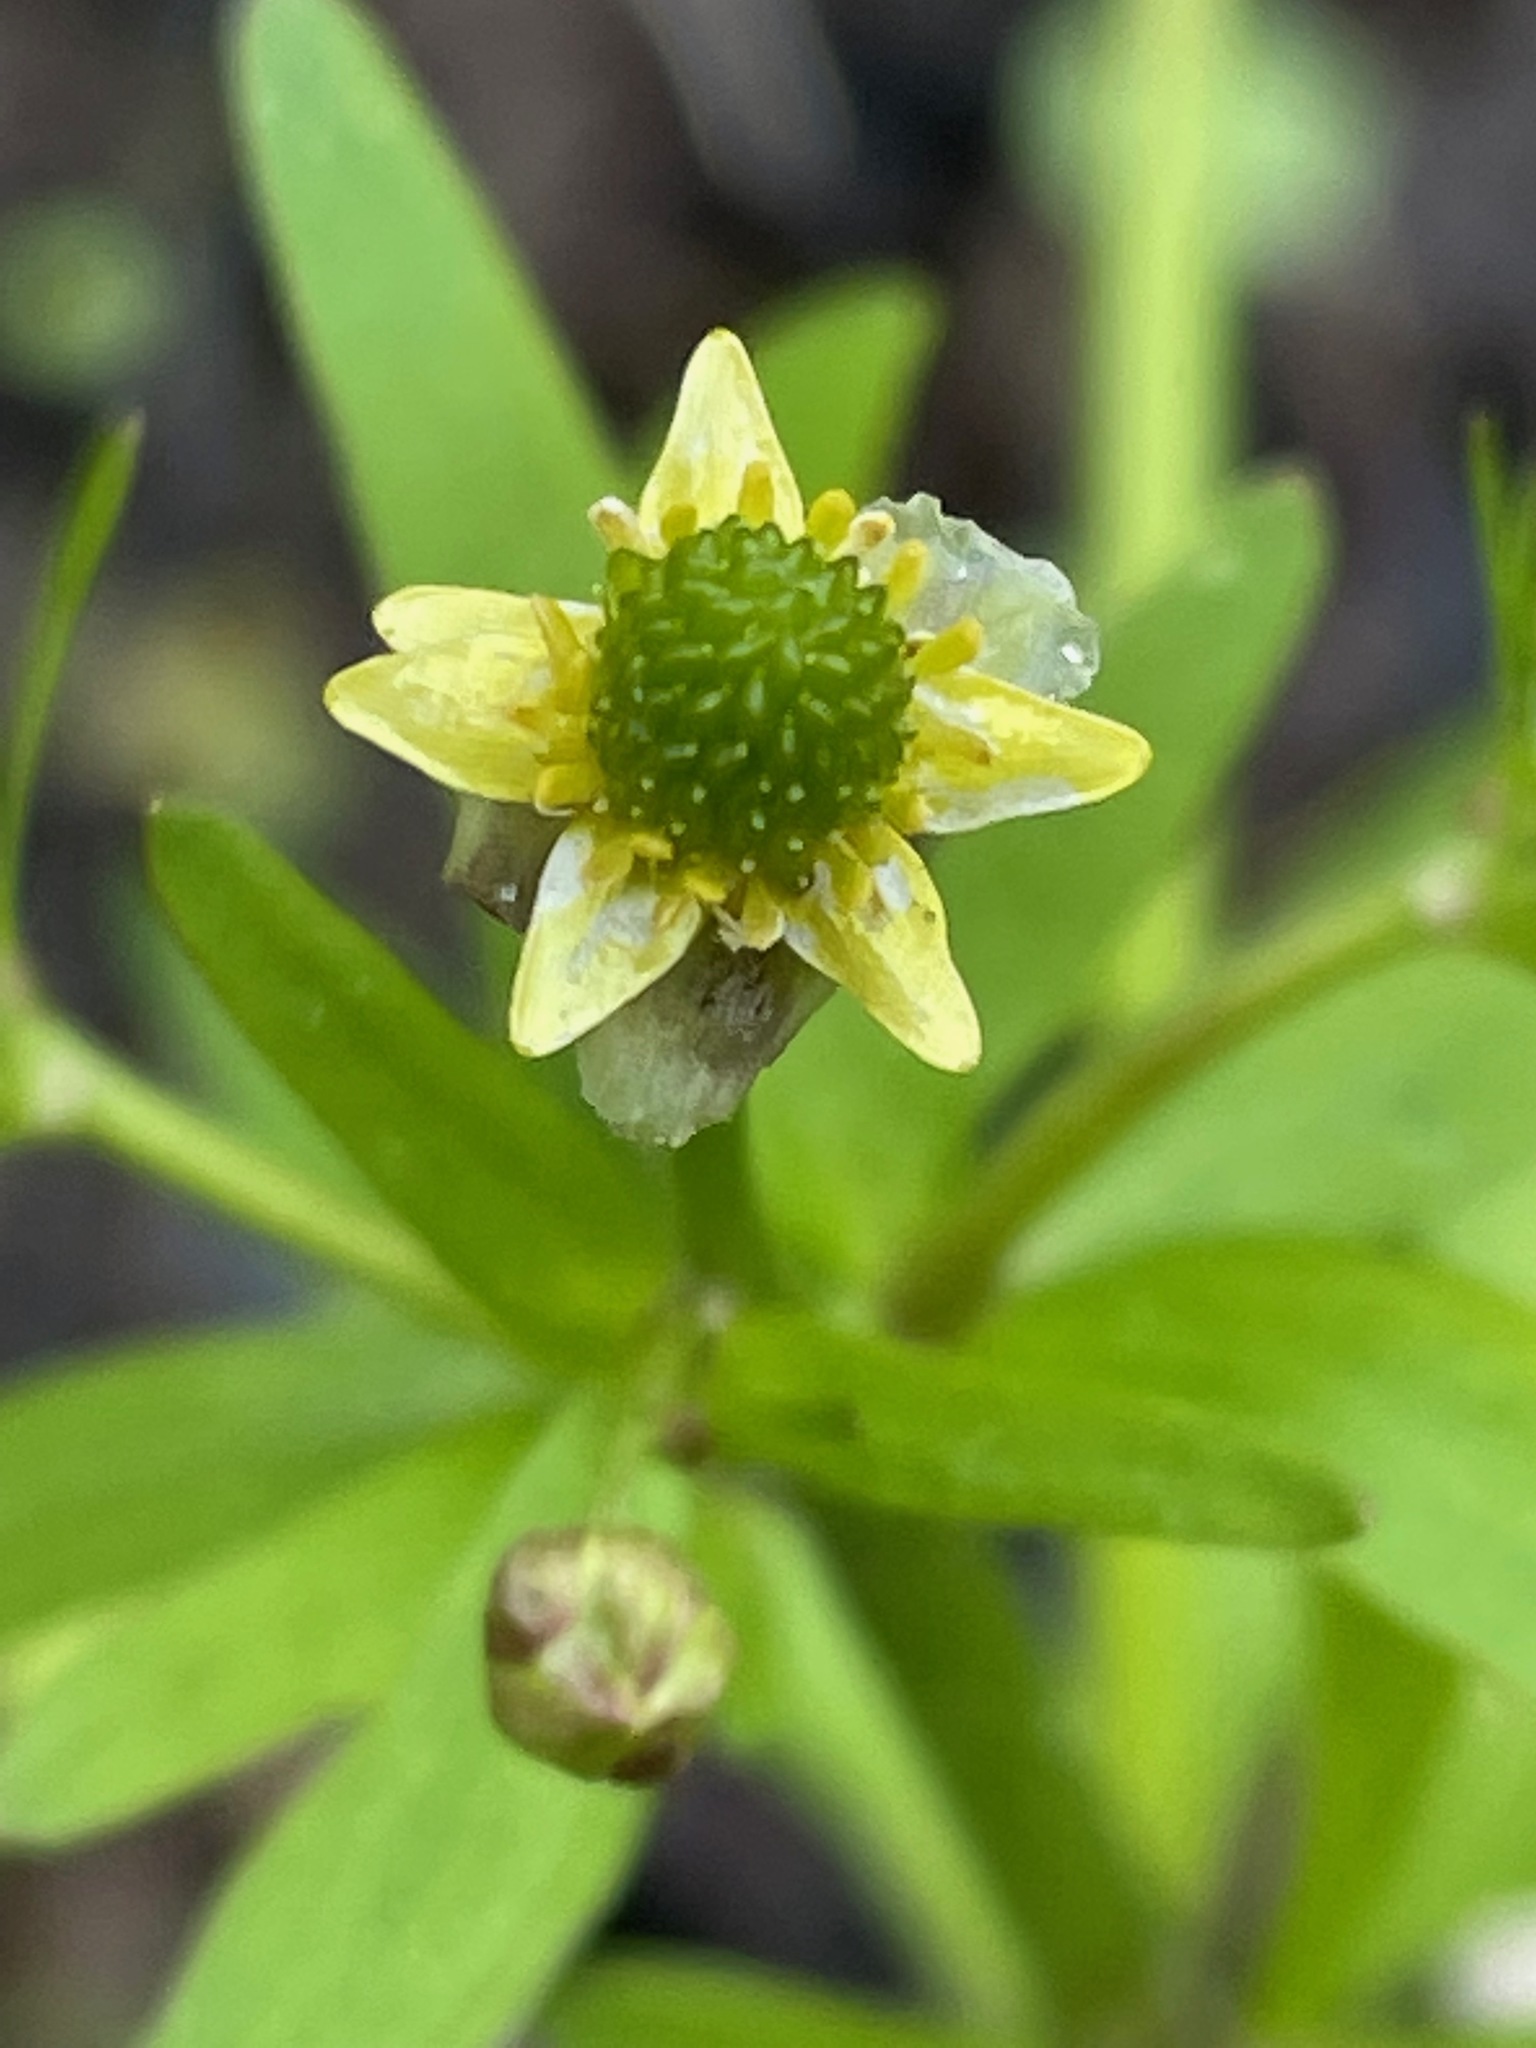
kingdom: Plantae
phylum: Tracheophyta
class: Magnoliopsida
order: Ranunculales
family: Ranunculaceae
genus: Ranunculus
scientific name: Ranunculus abortivus
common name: Early wood buttercup
